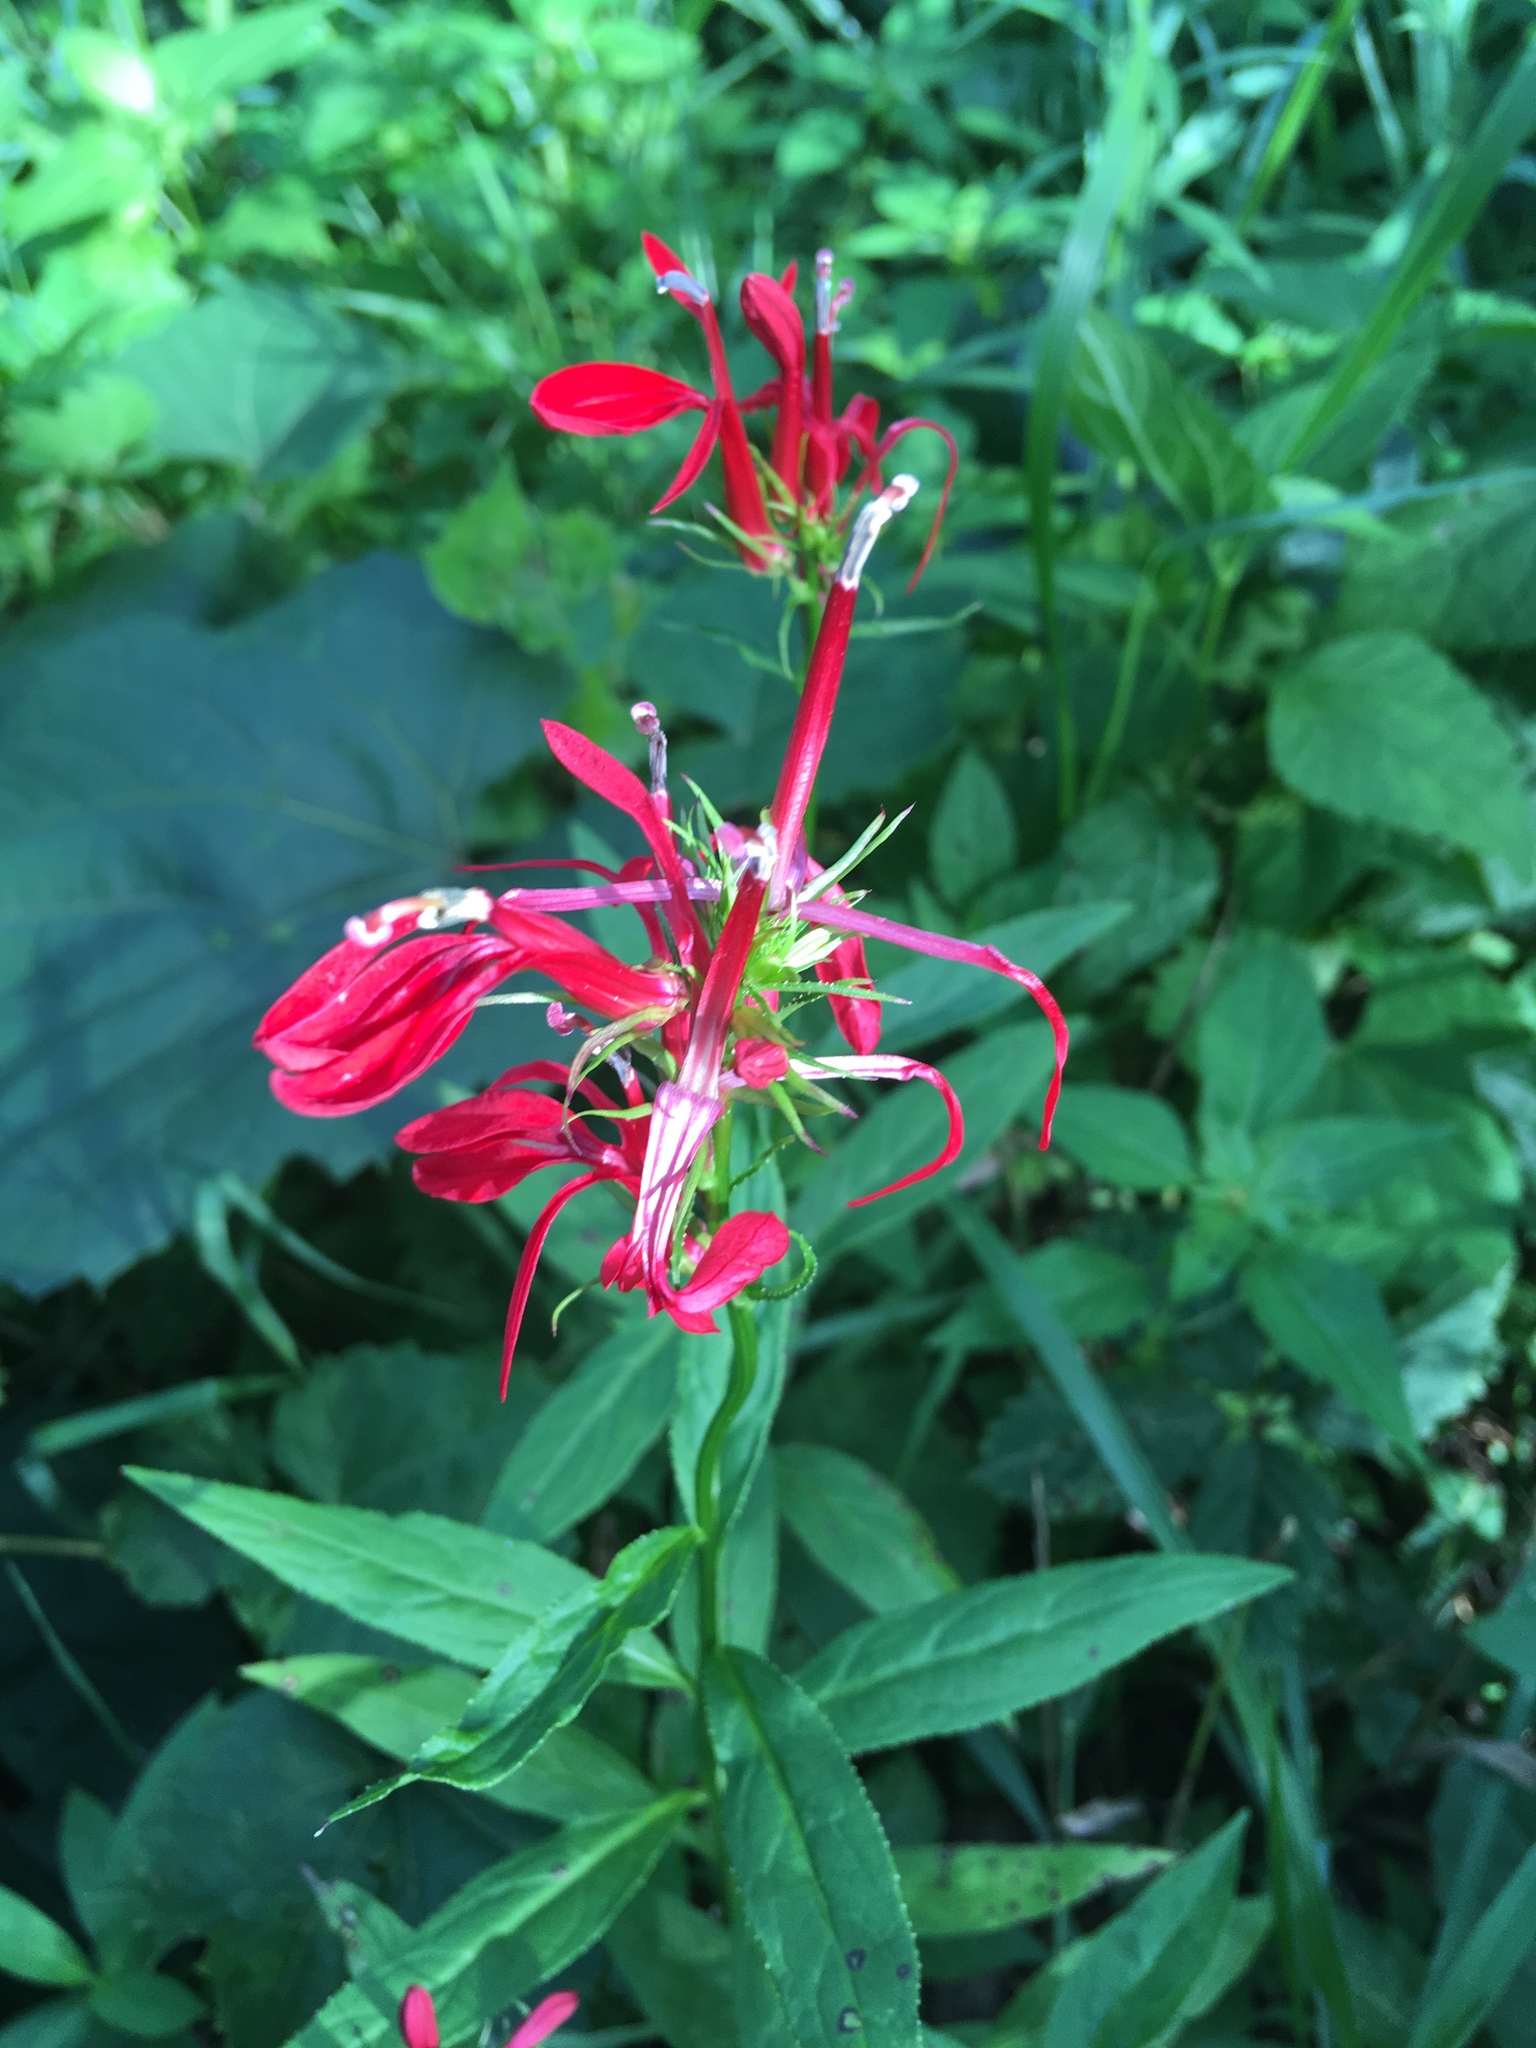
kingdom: Plantae
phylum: Tracheophyta
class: Magnoliopsida
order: Asterales
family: Campanulaceae
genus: Lobelia
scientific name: Lobelia cardinalis
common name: Cardinal flower
